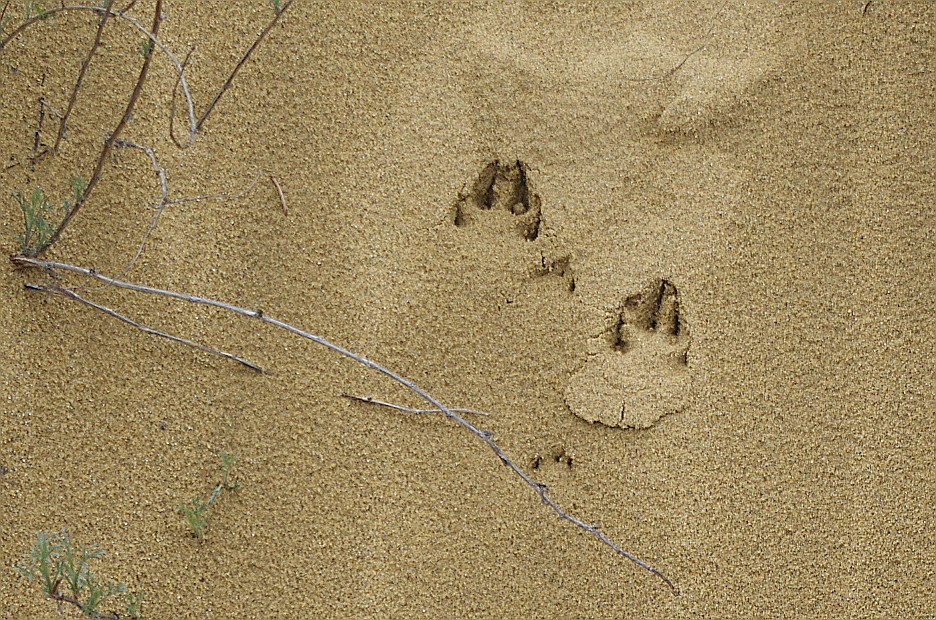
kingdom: Animalia
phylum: Chordata
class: Mammalia
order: Lagomorpha
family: Leporidae
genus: Lepus
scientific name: Lepus europaeus
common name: European hare
